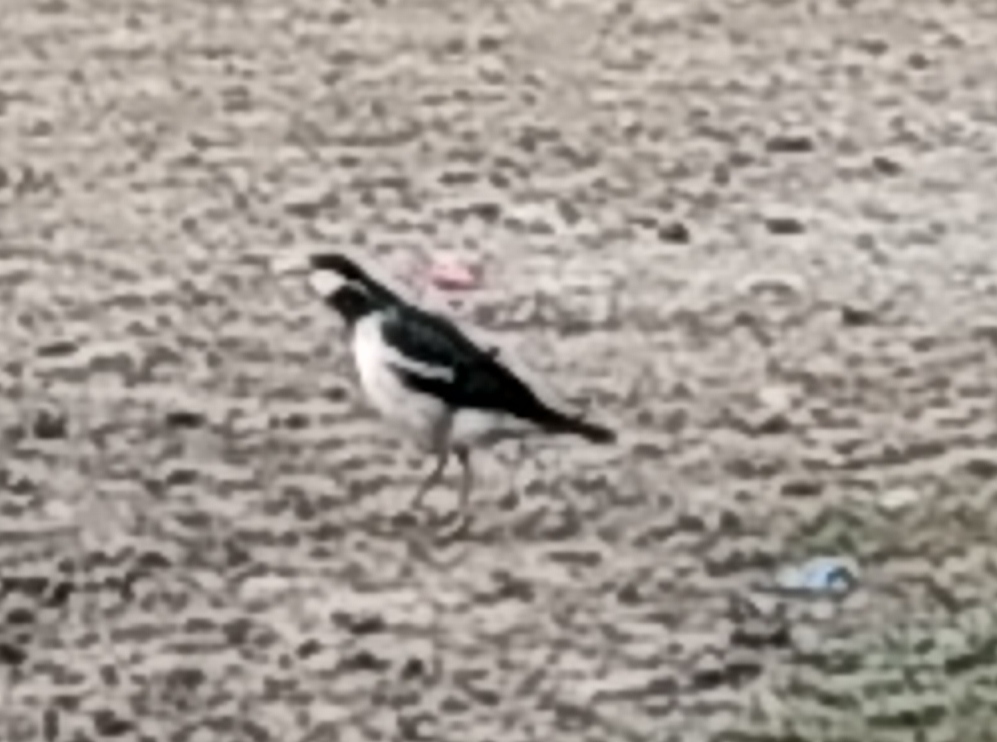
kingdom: Animalia
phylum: Chordata
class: Aves
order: Passeriformes
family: Sturnidae
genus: Gracupica
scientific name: Gracupica contra
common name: Pied myna
